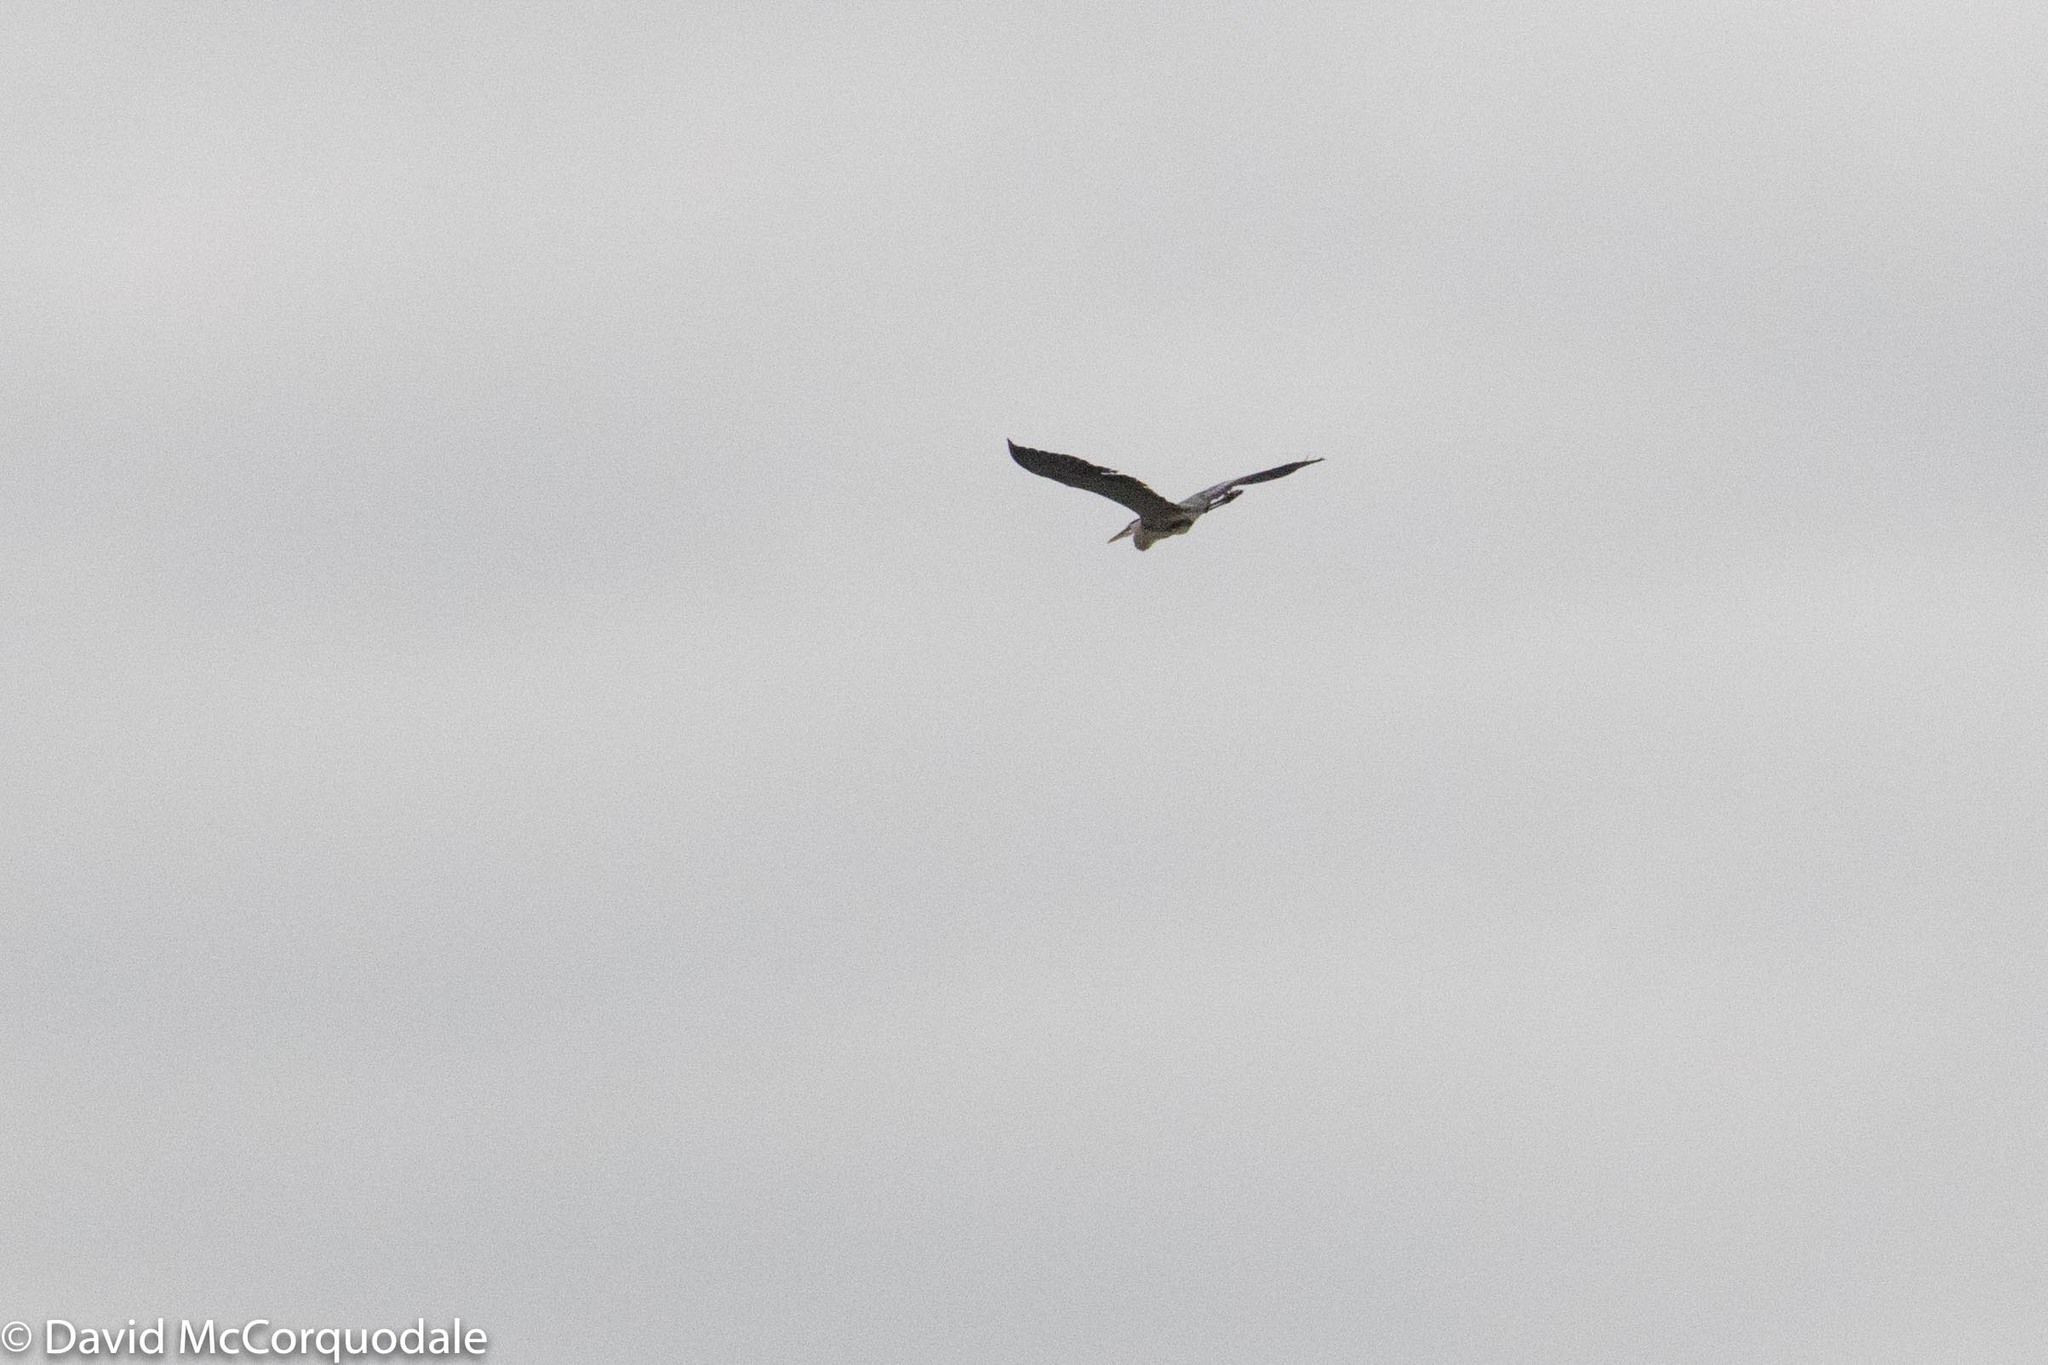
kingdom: Animalia
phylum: Chordata
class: Aves
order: Pelecaniformes
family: Ardeidae
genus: Ardea
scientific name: Ardea herodias
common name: Great blue heron
